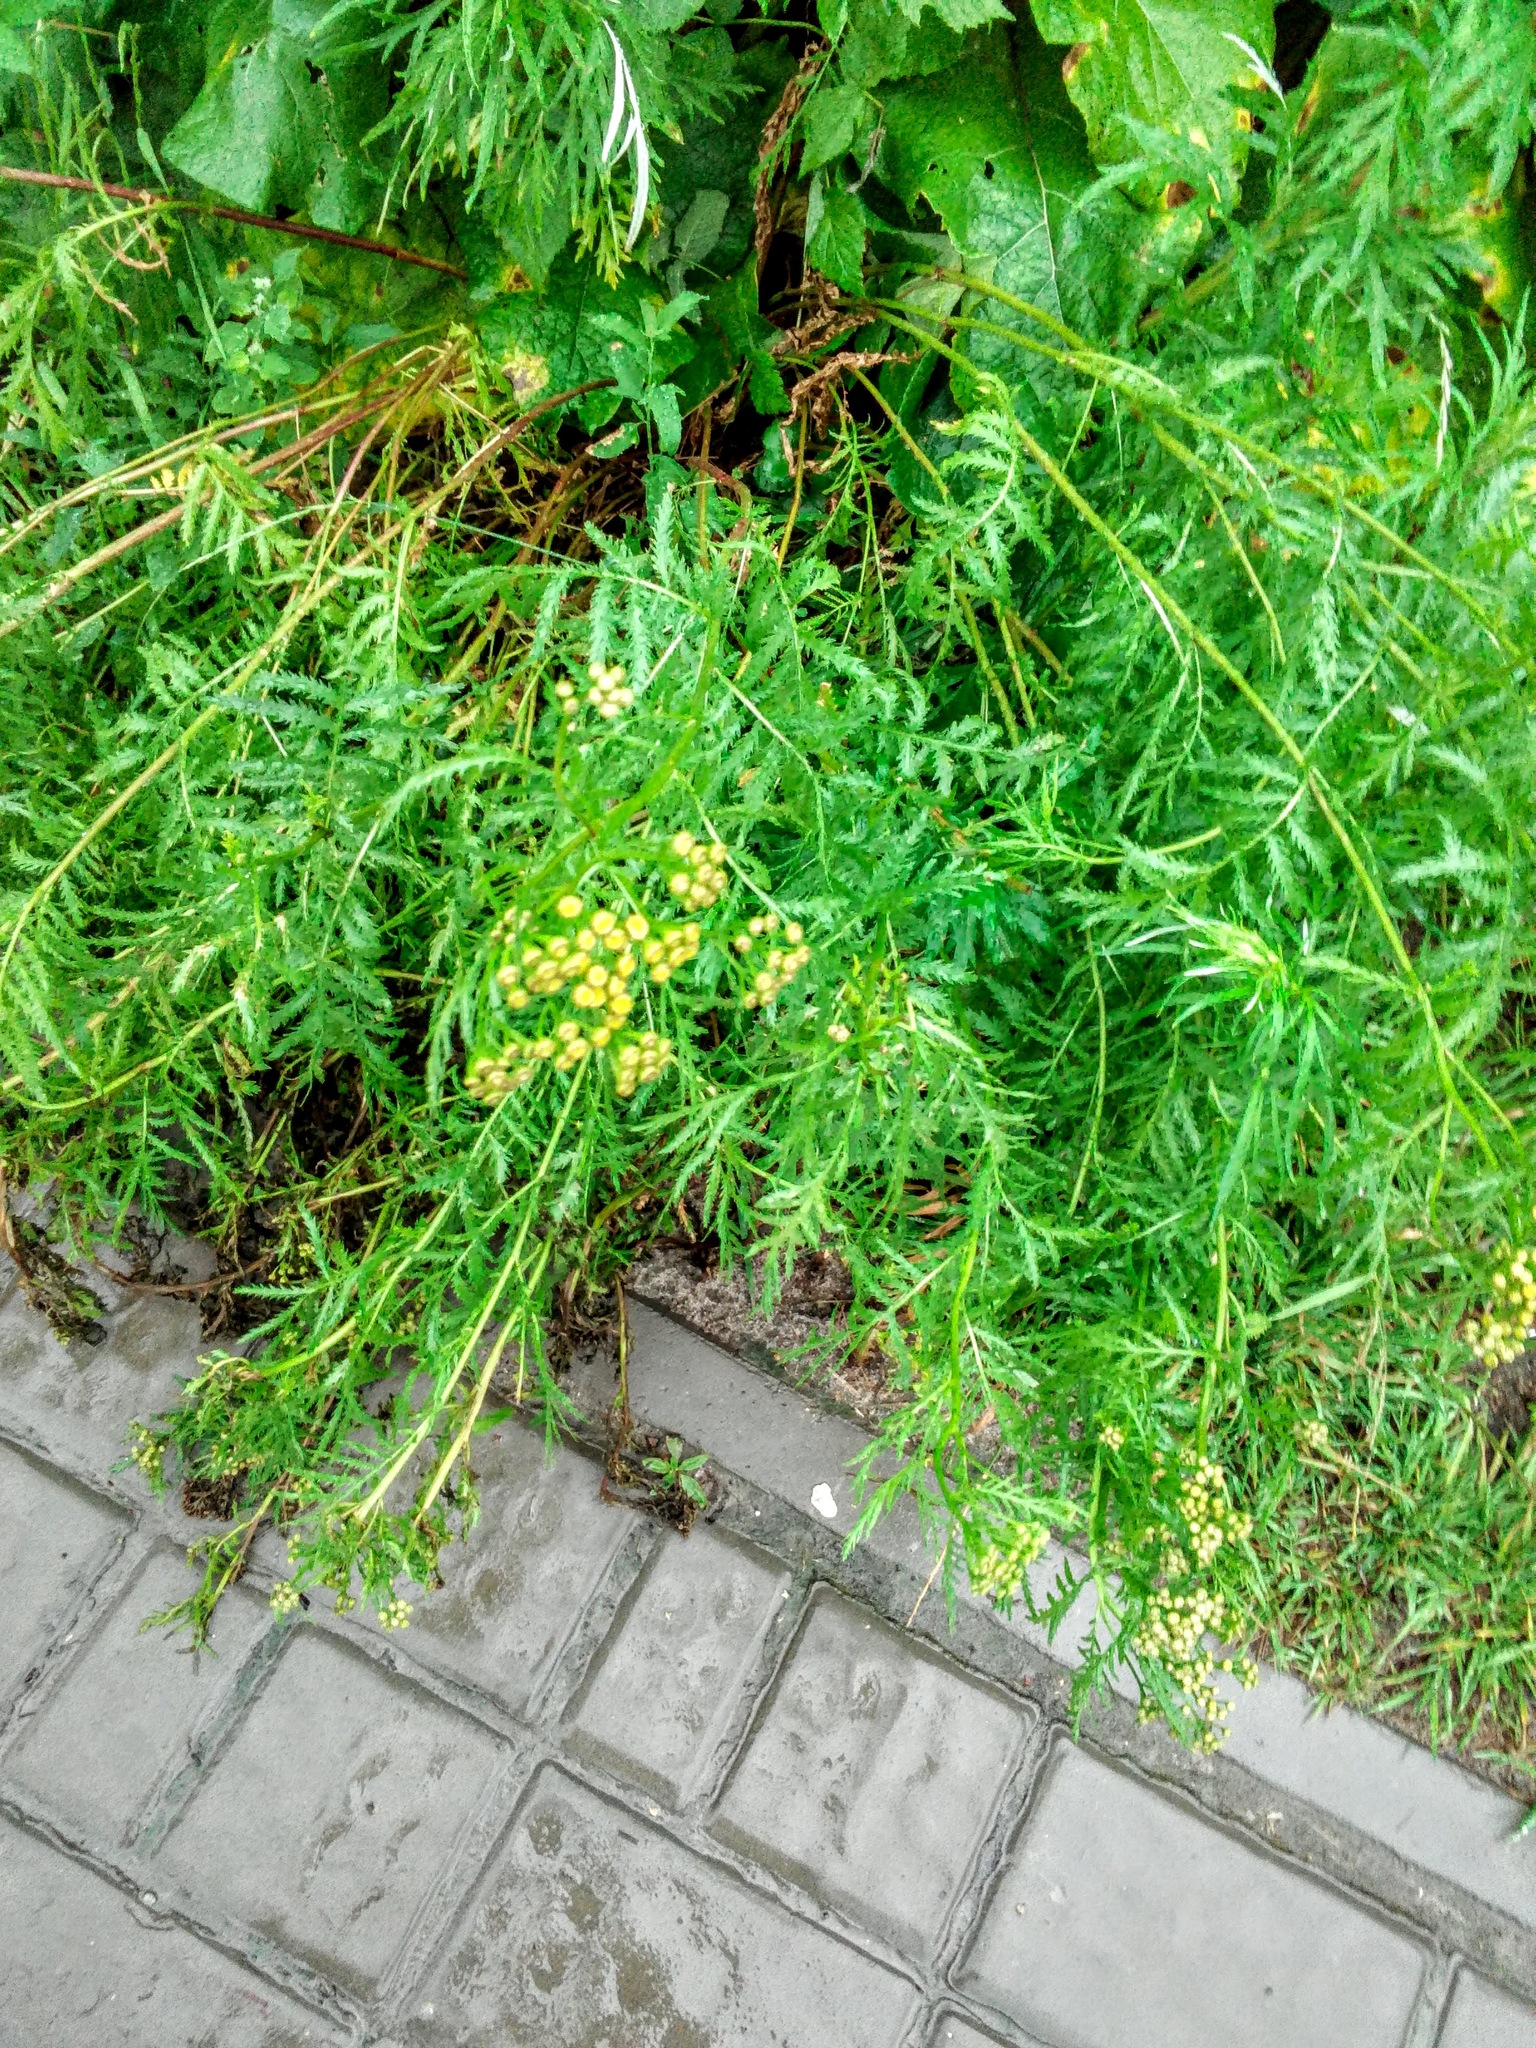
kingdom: Plantae
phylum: Tracheophyta
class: Magnoliopsida
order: Asterales
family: Asteraceae
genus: Tanacetum
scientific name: Tanacetum vulgare
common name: Common tansy
